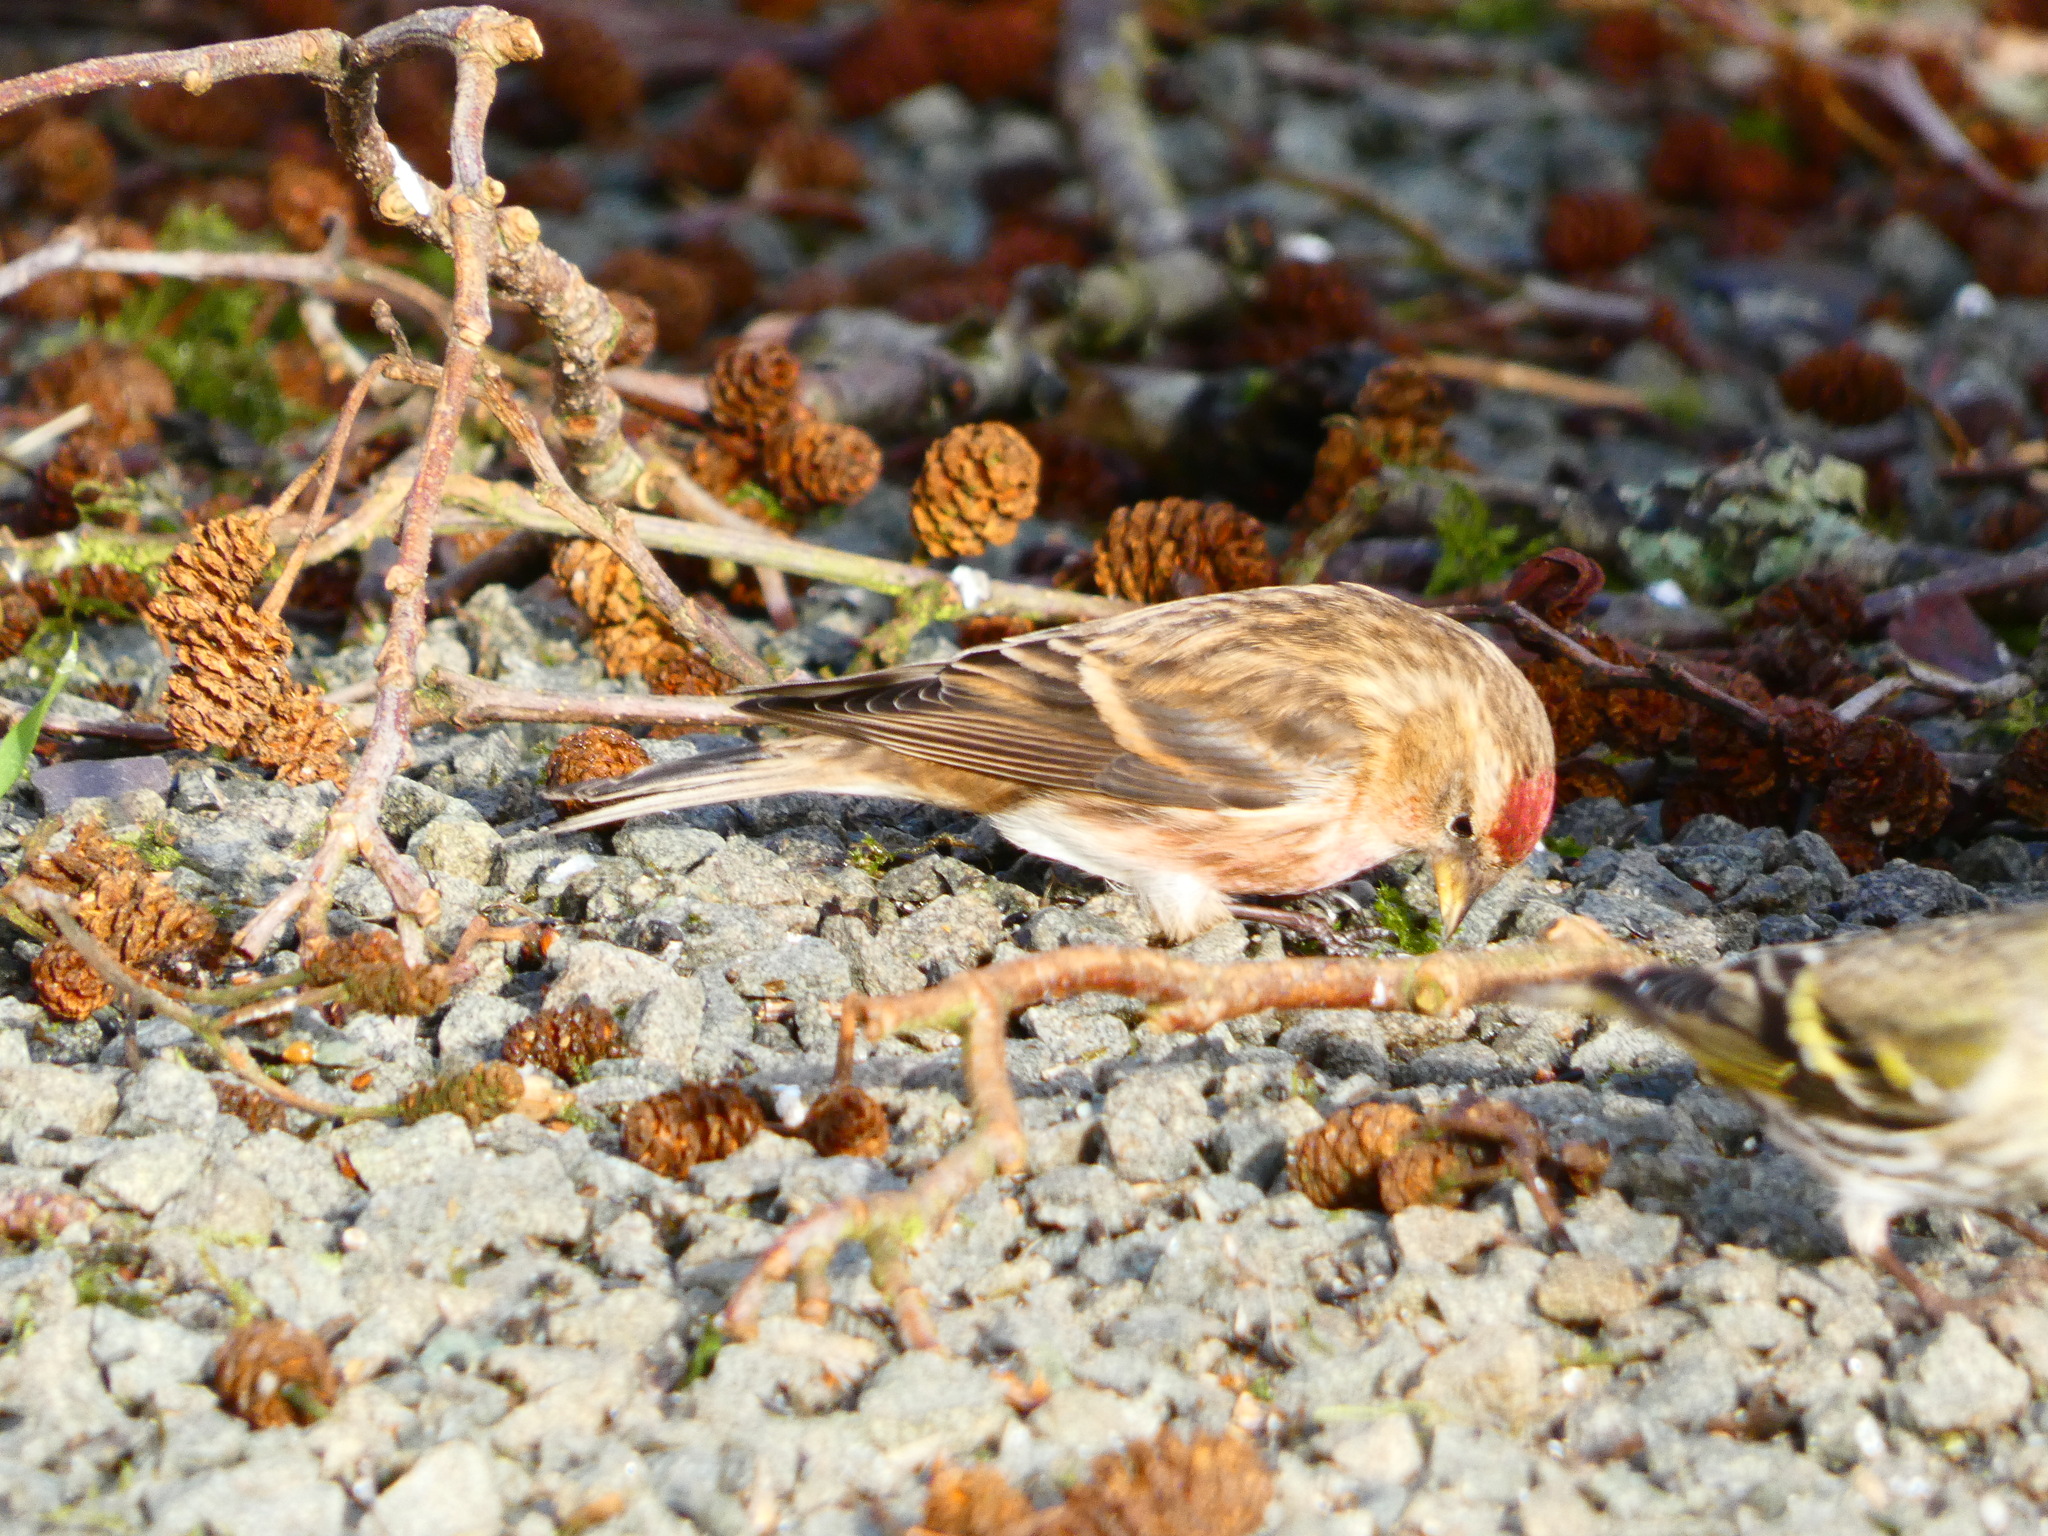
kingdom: Animalia
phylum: Chordata
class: Aves
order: Passeriformes
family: Fringillidae
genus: Acanthis
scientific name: Acanthis flammea
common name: Common redpoll
